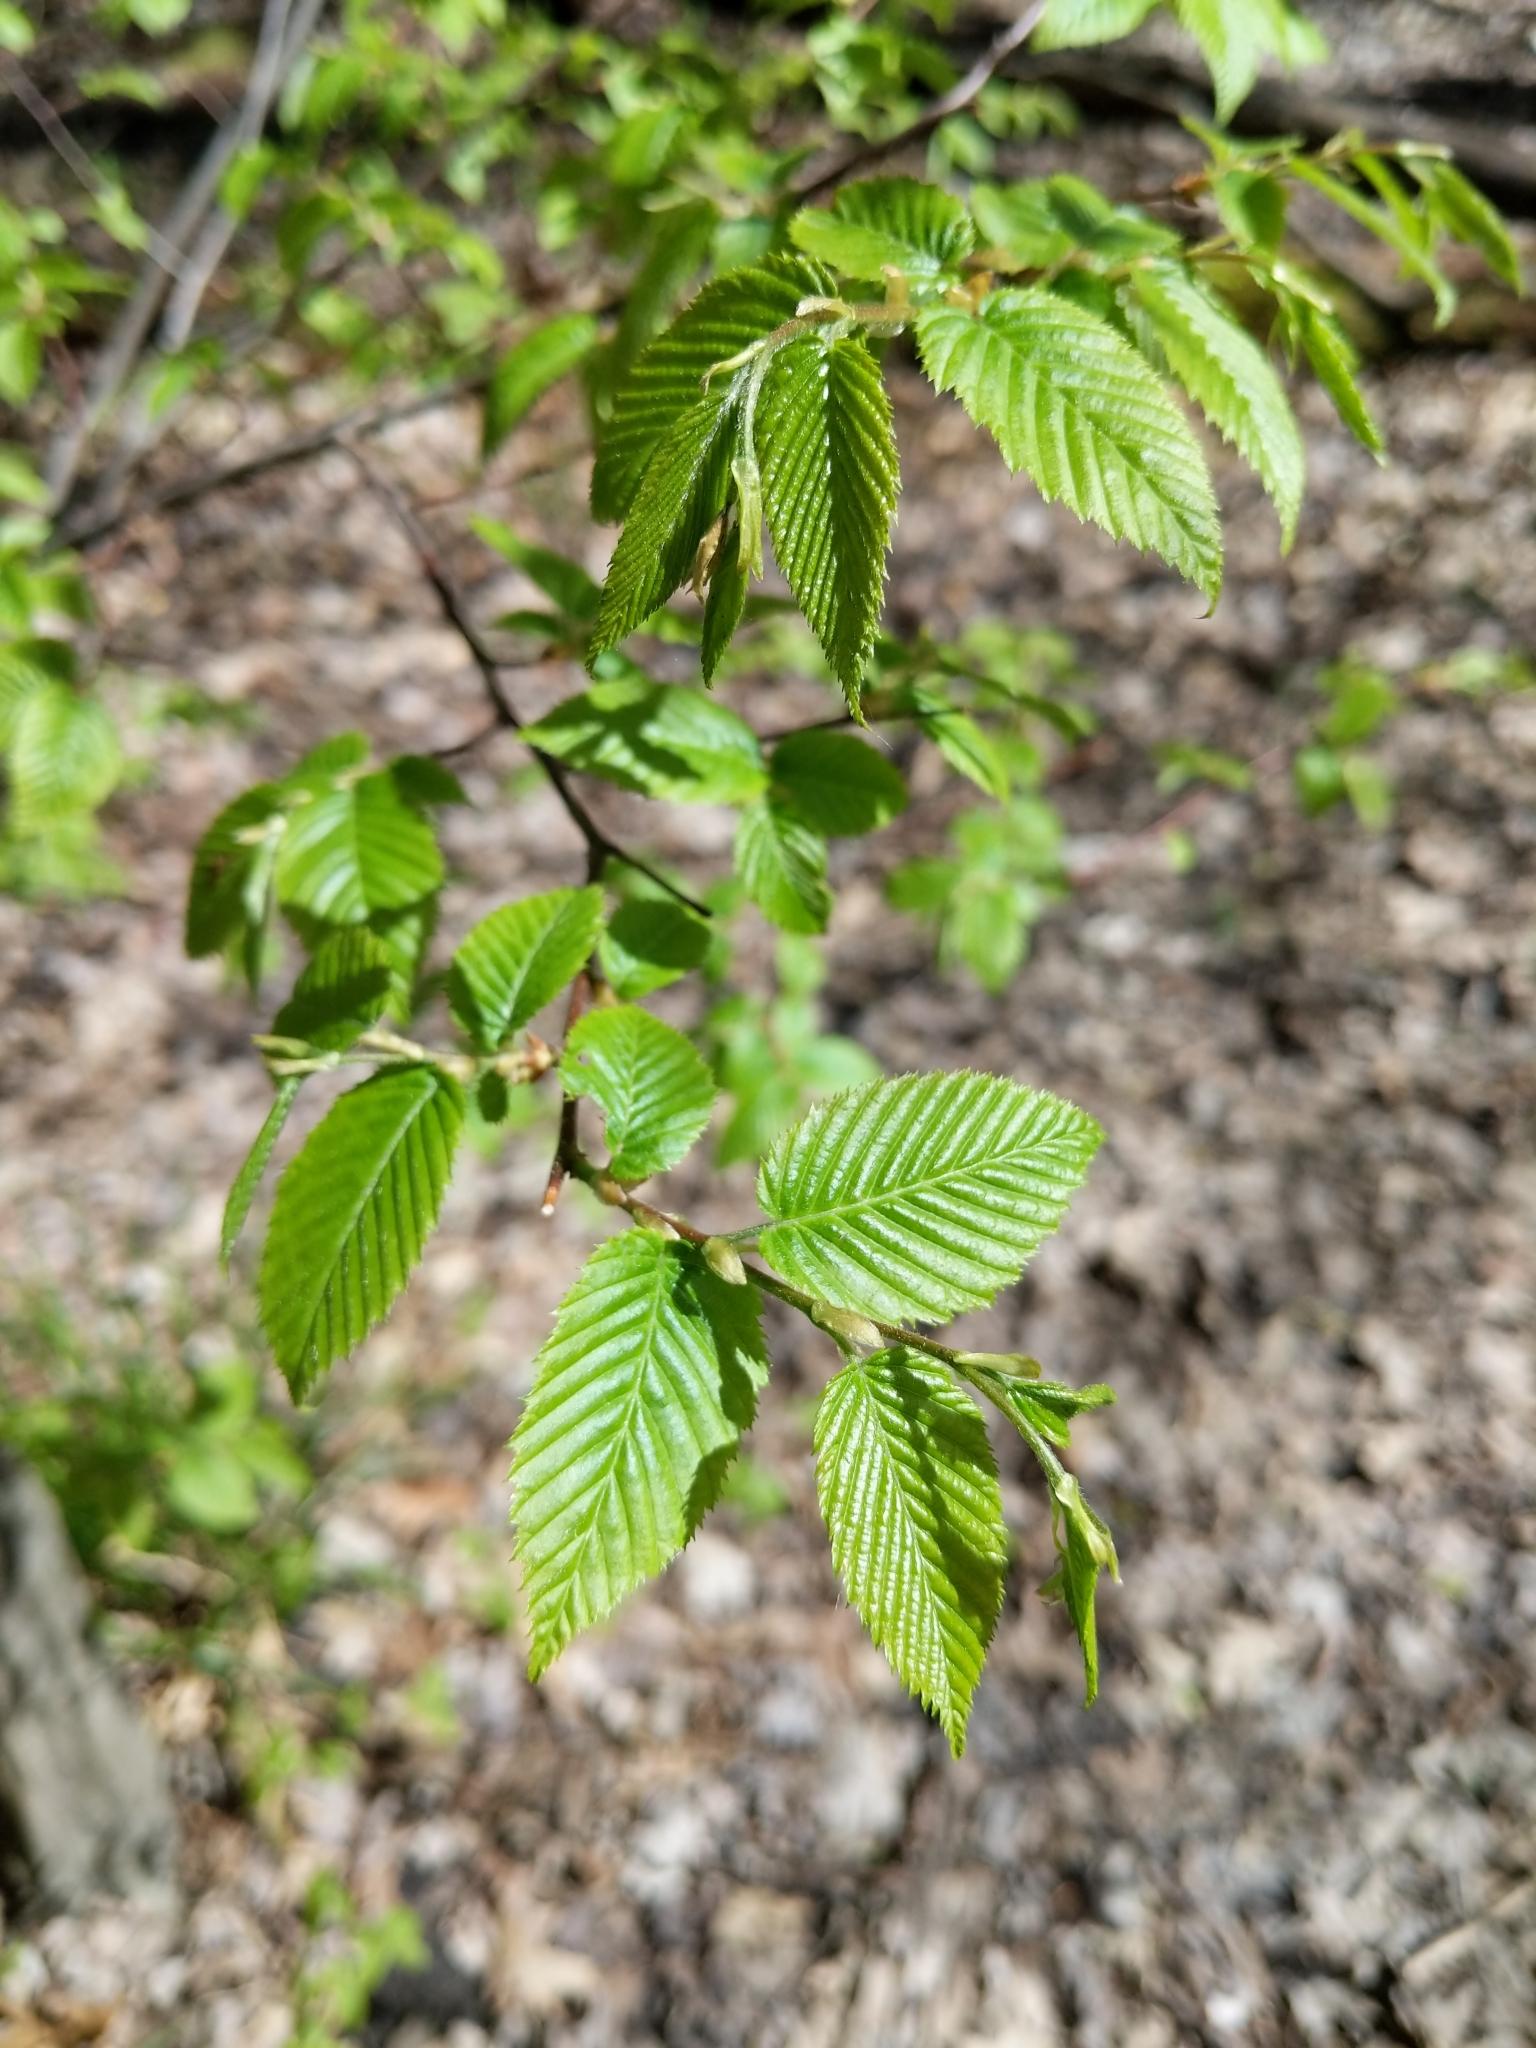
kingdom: Plantae
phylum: Tracheophyta
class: Magnoliopsida
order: Fagales
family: Betulaceae
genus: Carpinus
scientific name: Carpinus caroliniana
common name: American hornbeam
